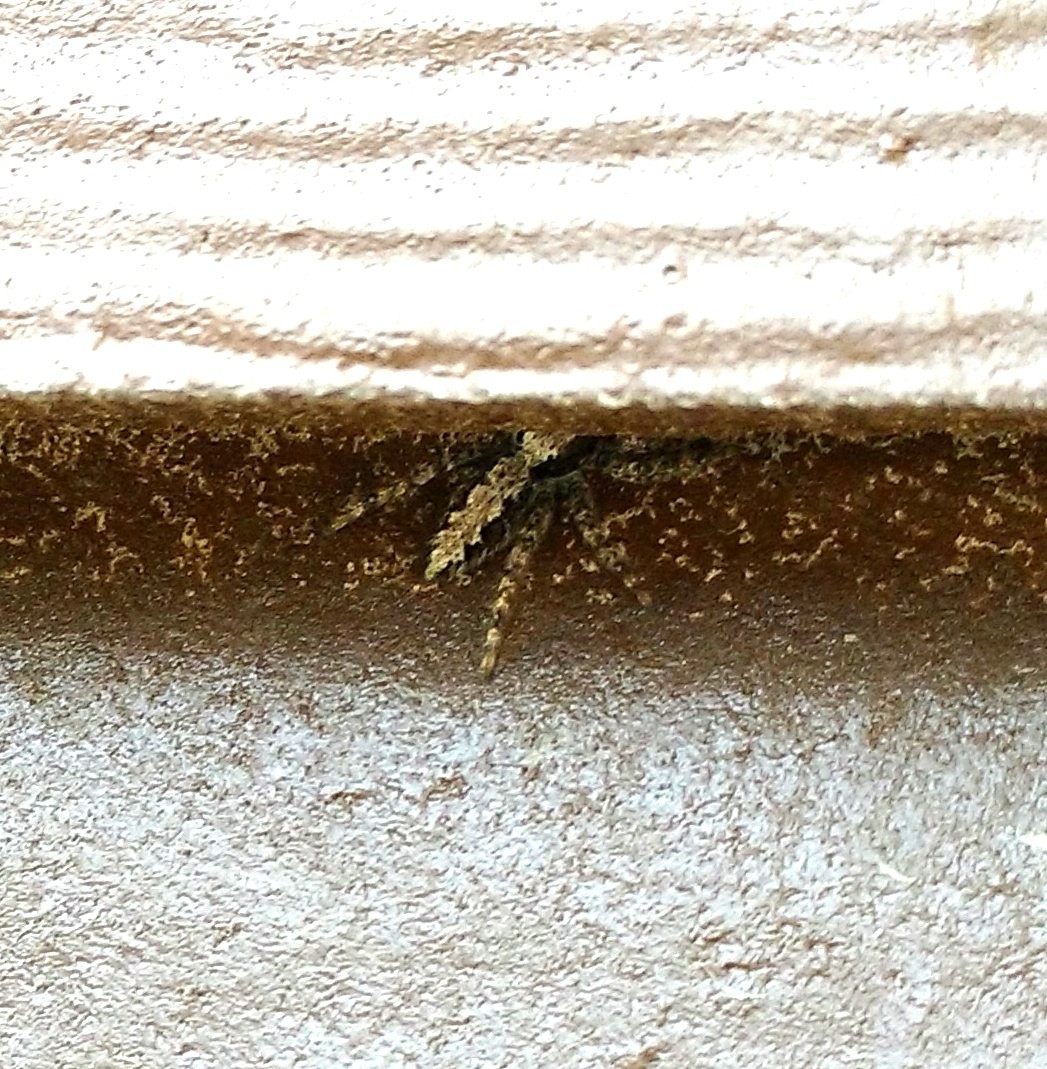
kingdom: Animalia
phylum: Arthropoda
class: Arachnida
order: Araneae
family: Salticidae
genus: Platycryptus
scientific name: Platycryptus californicus
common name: Jumping spiders
